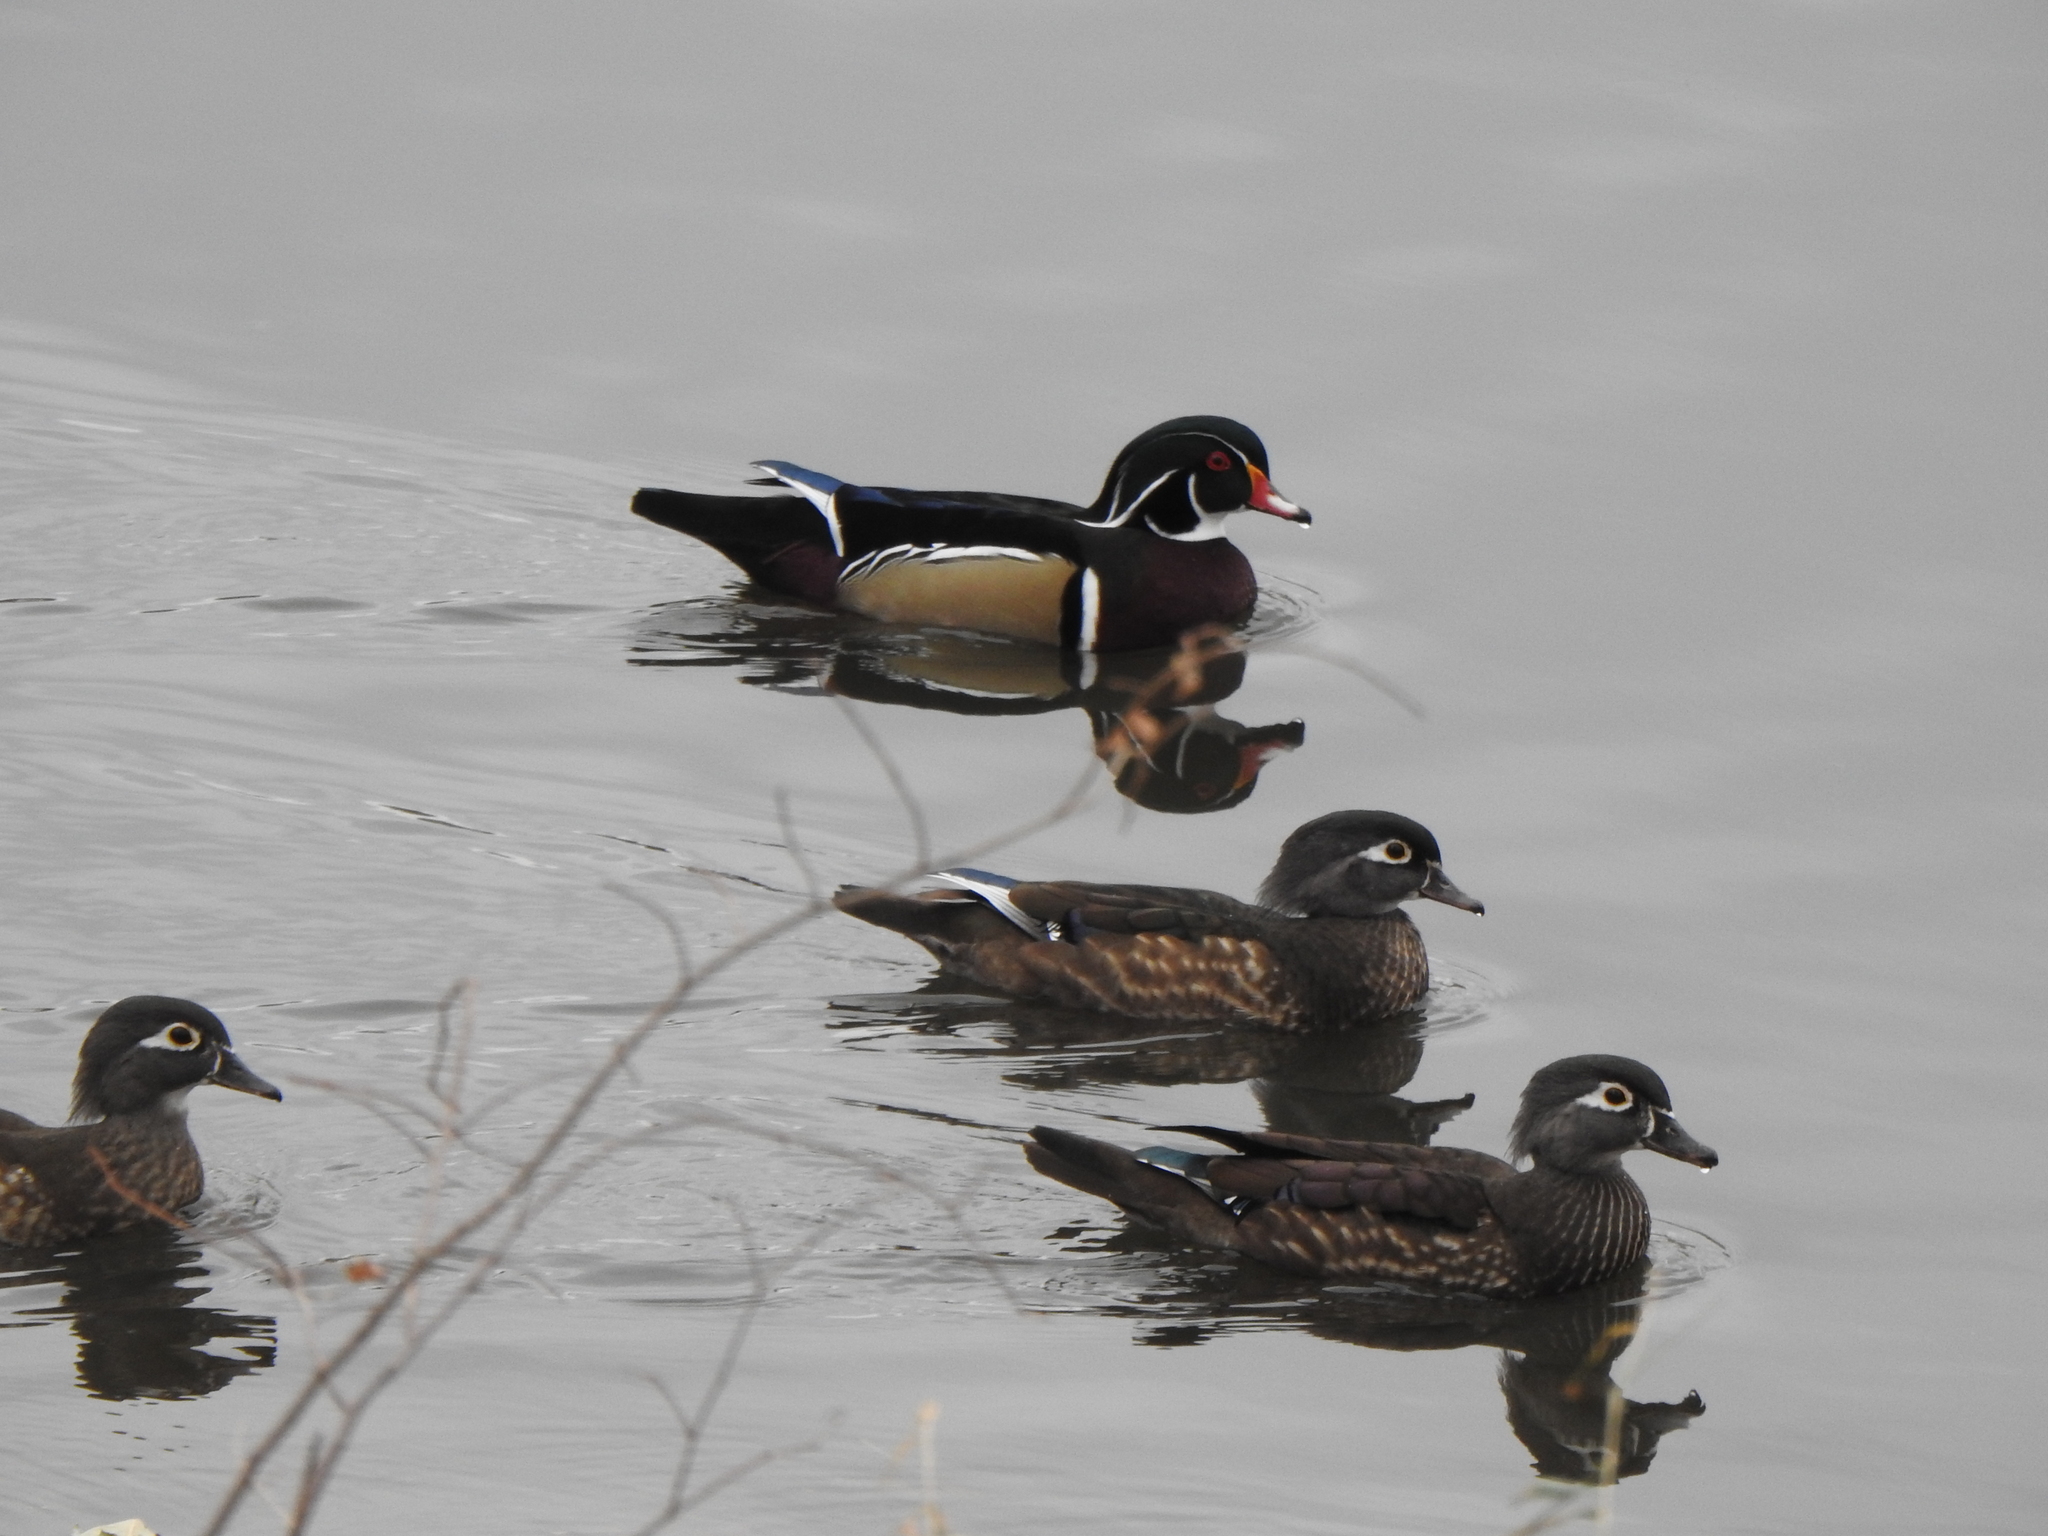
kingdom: Animalia
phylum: Chordata
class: Aves
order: Anseriformes
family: Anatidae
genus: Aix
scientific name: Aix sponsa
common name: Wood duck
